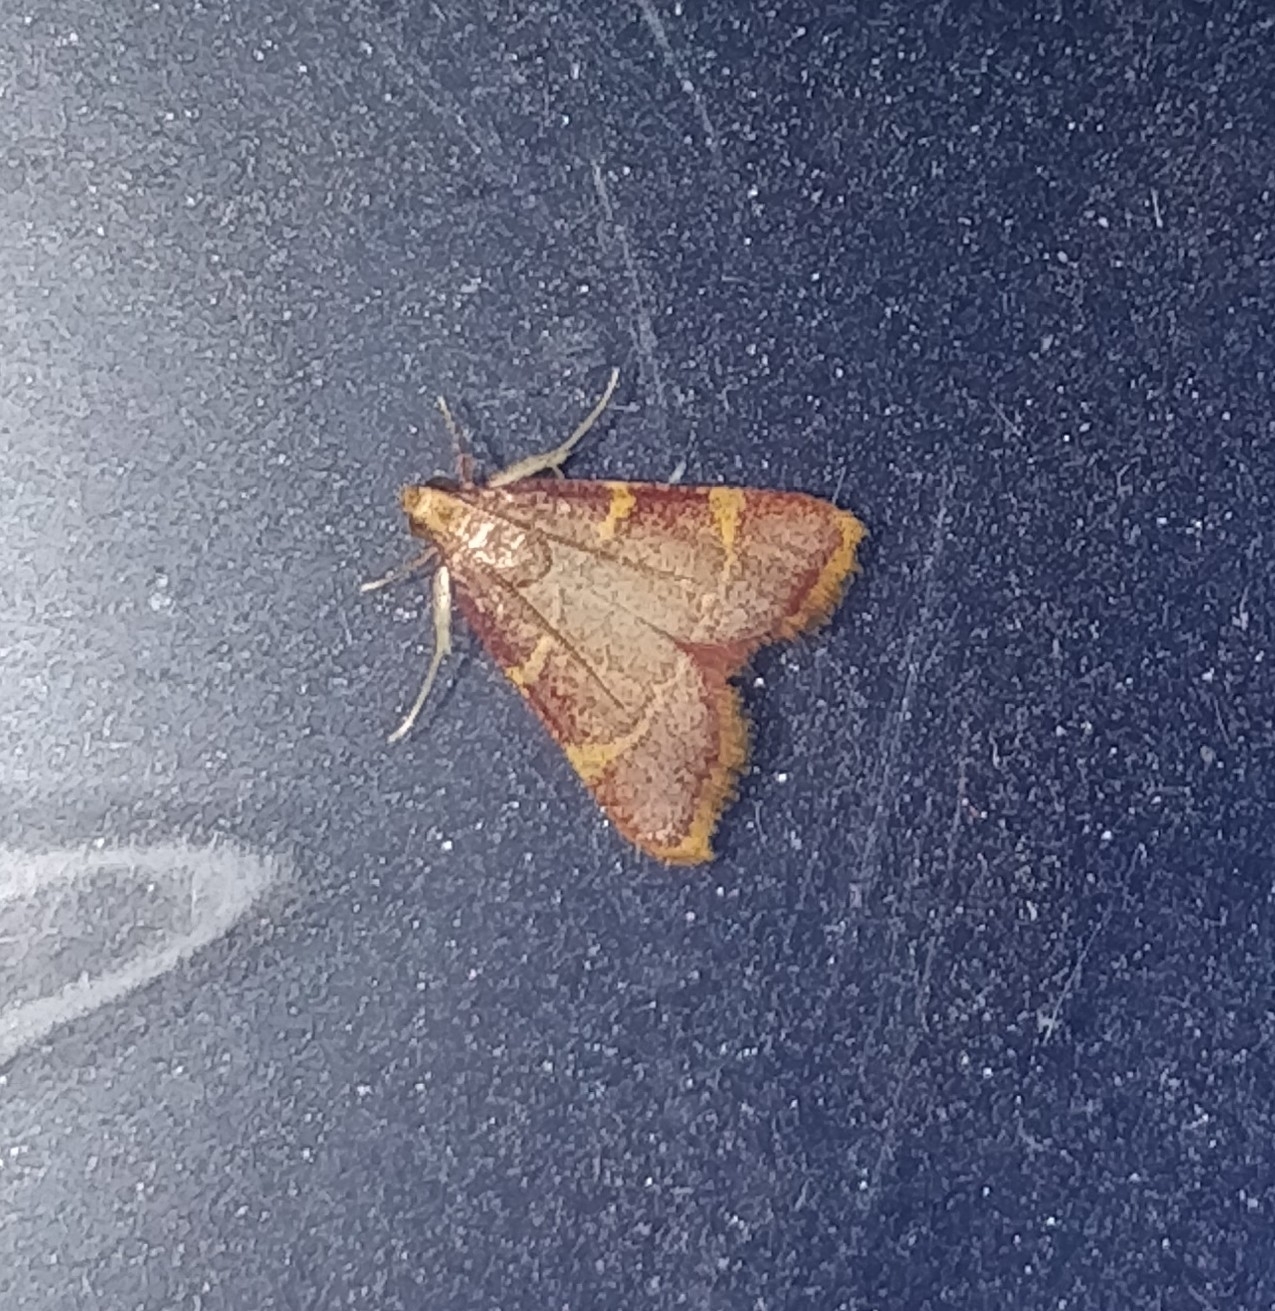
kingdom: Animalia
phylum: Arthropoda
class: Insecta
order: Lepidoptera
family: Pyralidae
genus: Hypsopygia
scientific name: Hypsopygia costalis
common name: Gold triangle
